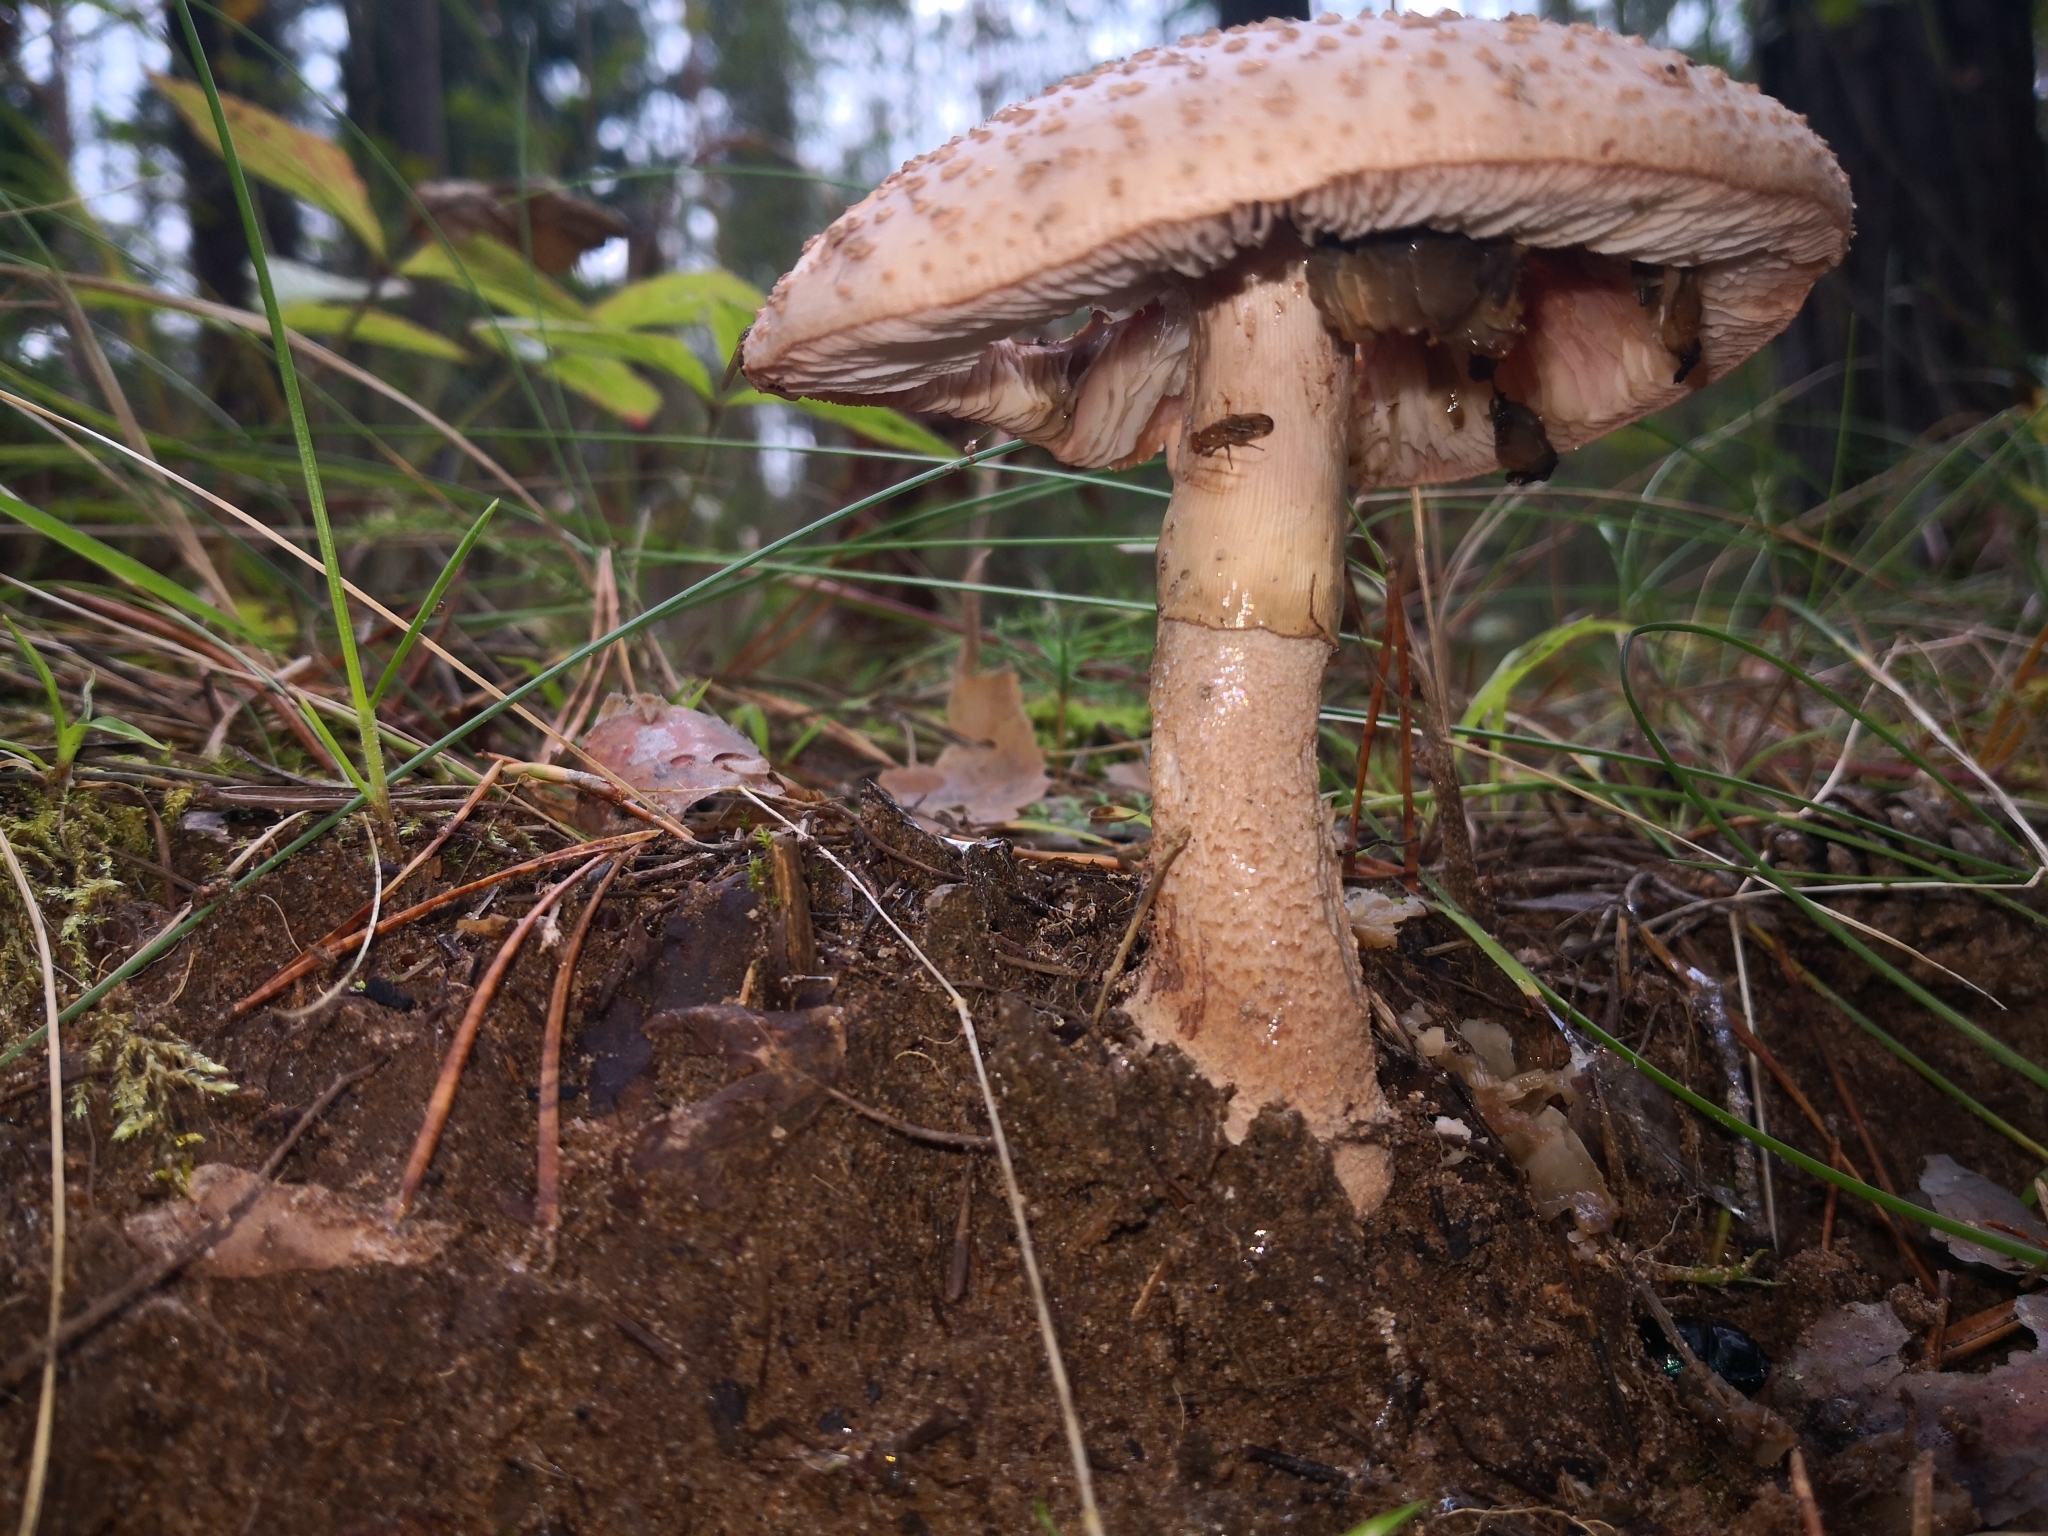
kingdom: Fungi
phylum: Basidiomycota
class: Agaricomycetes
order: Agaricales
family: Amanitaceae
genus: Amanita
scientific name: Amanita rubescens
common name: Blusher
